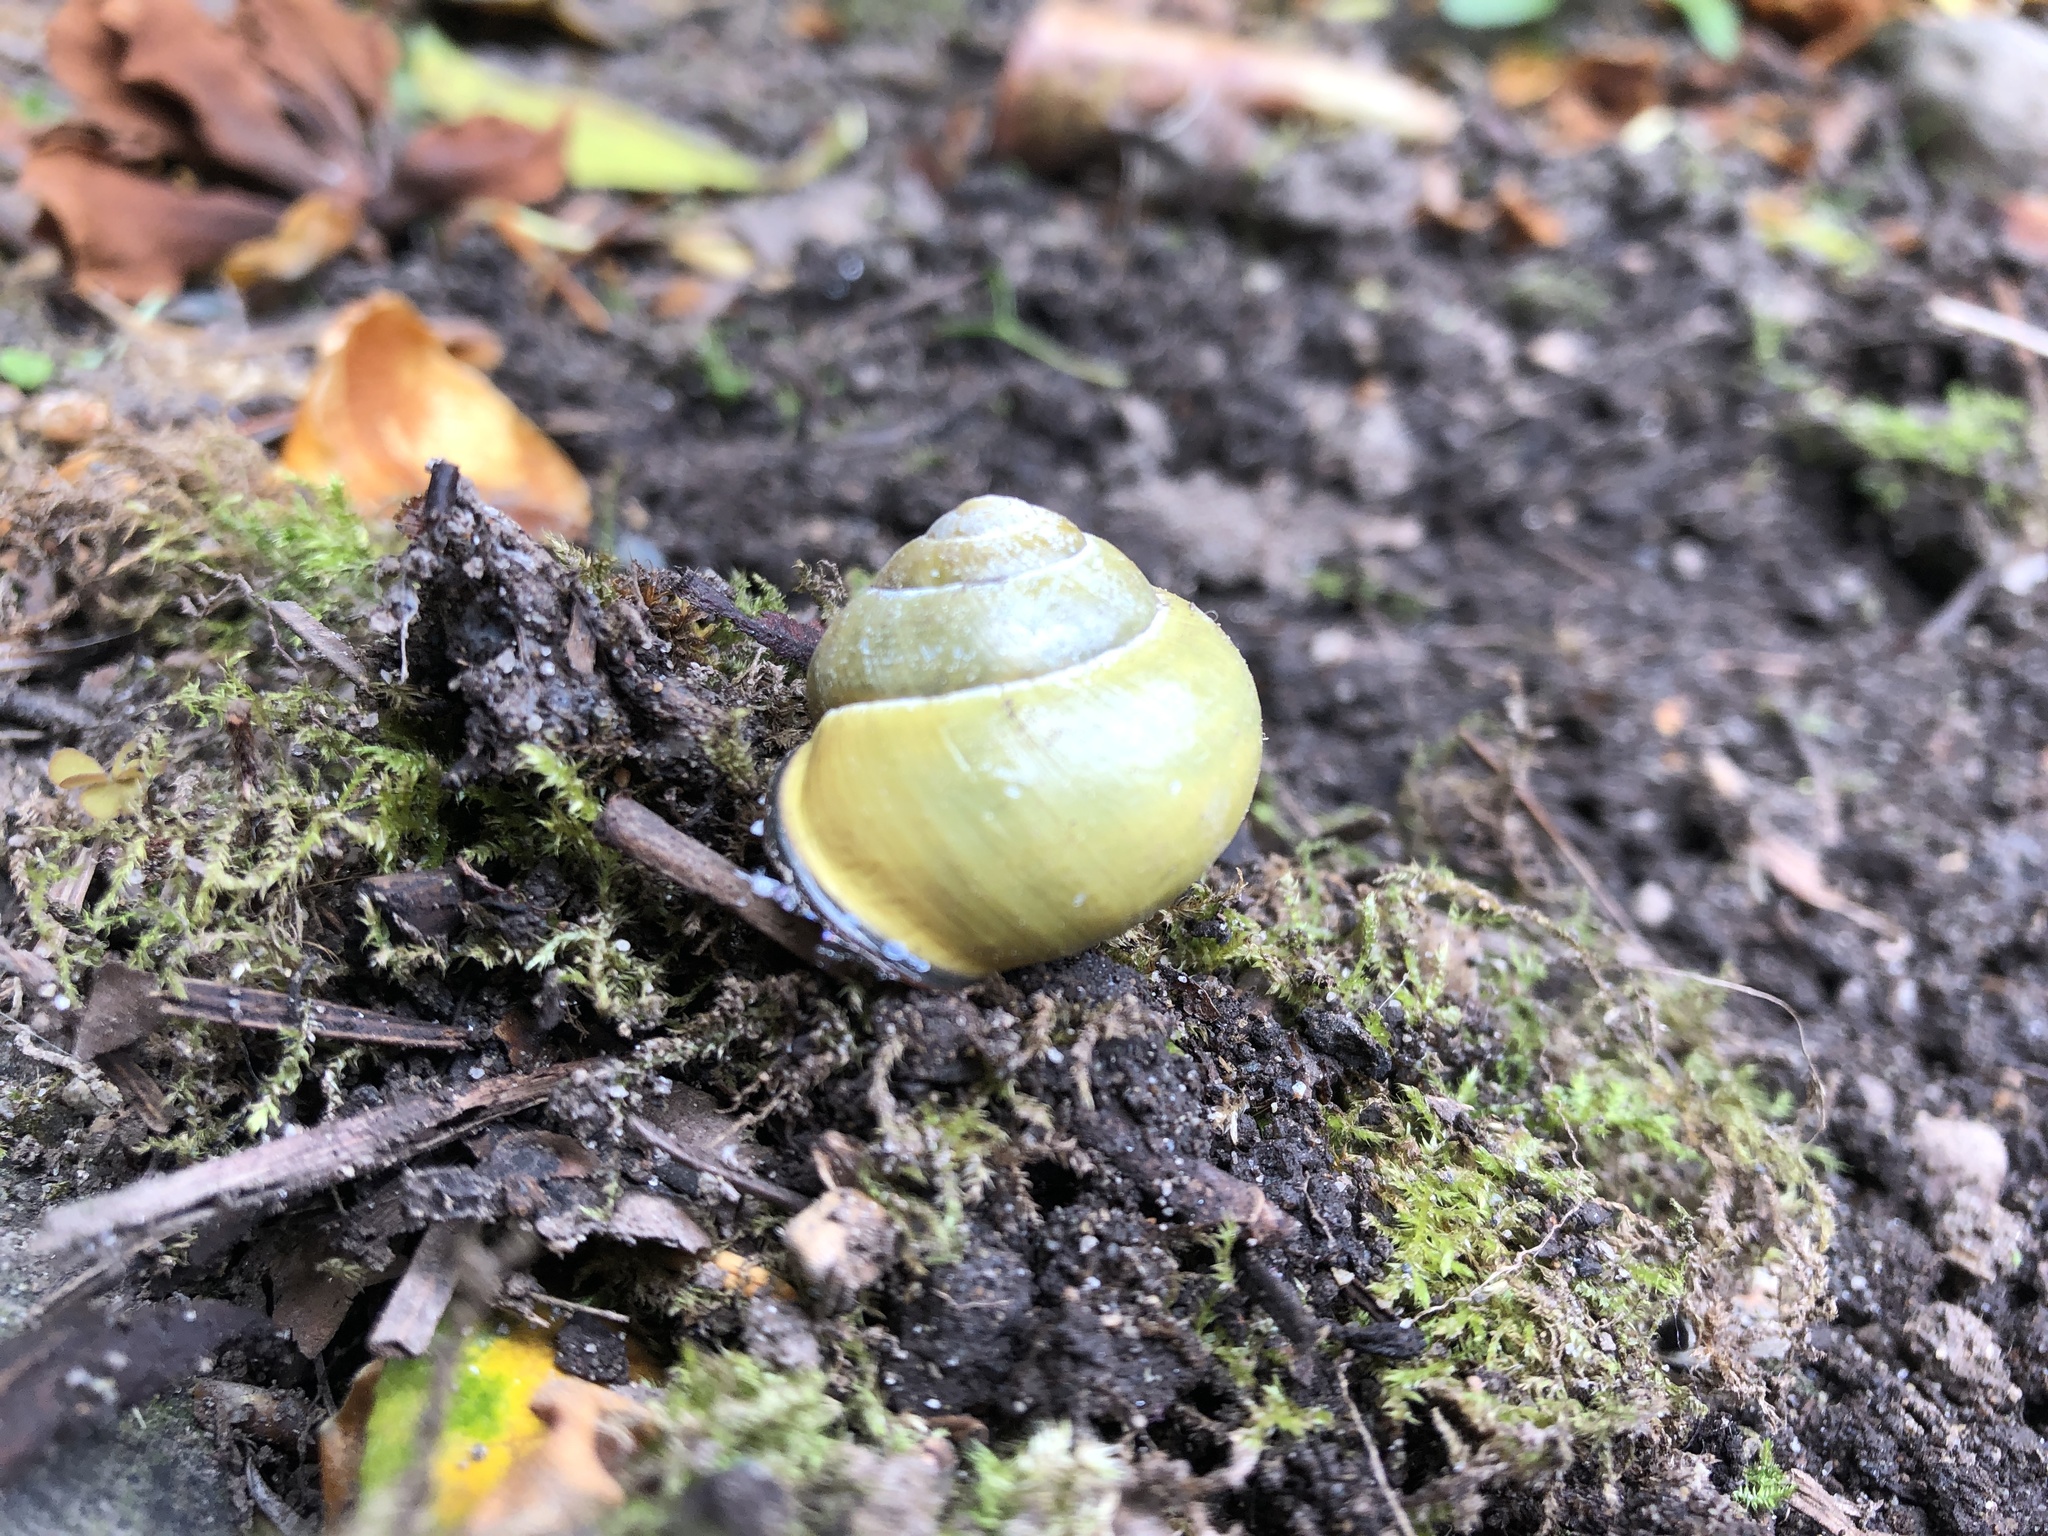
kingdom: Animalia
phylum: Mollusca
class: Gastropoda
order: Stylommatophora
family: Helicidae
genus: Cepaea
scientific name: Cepaea nemoralis
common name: Grovesnail
